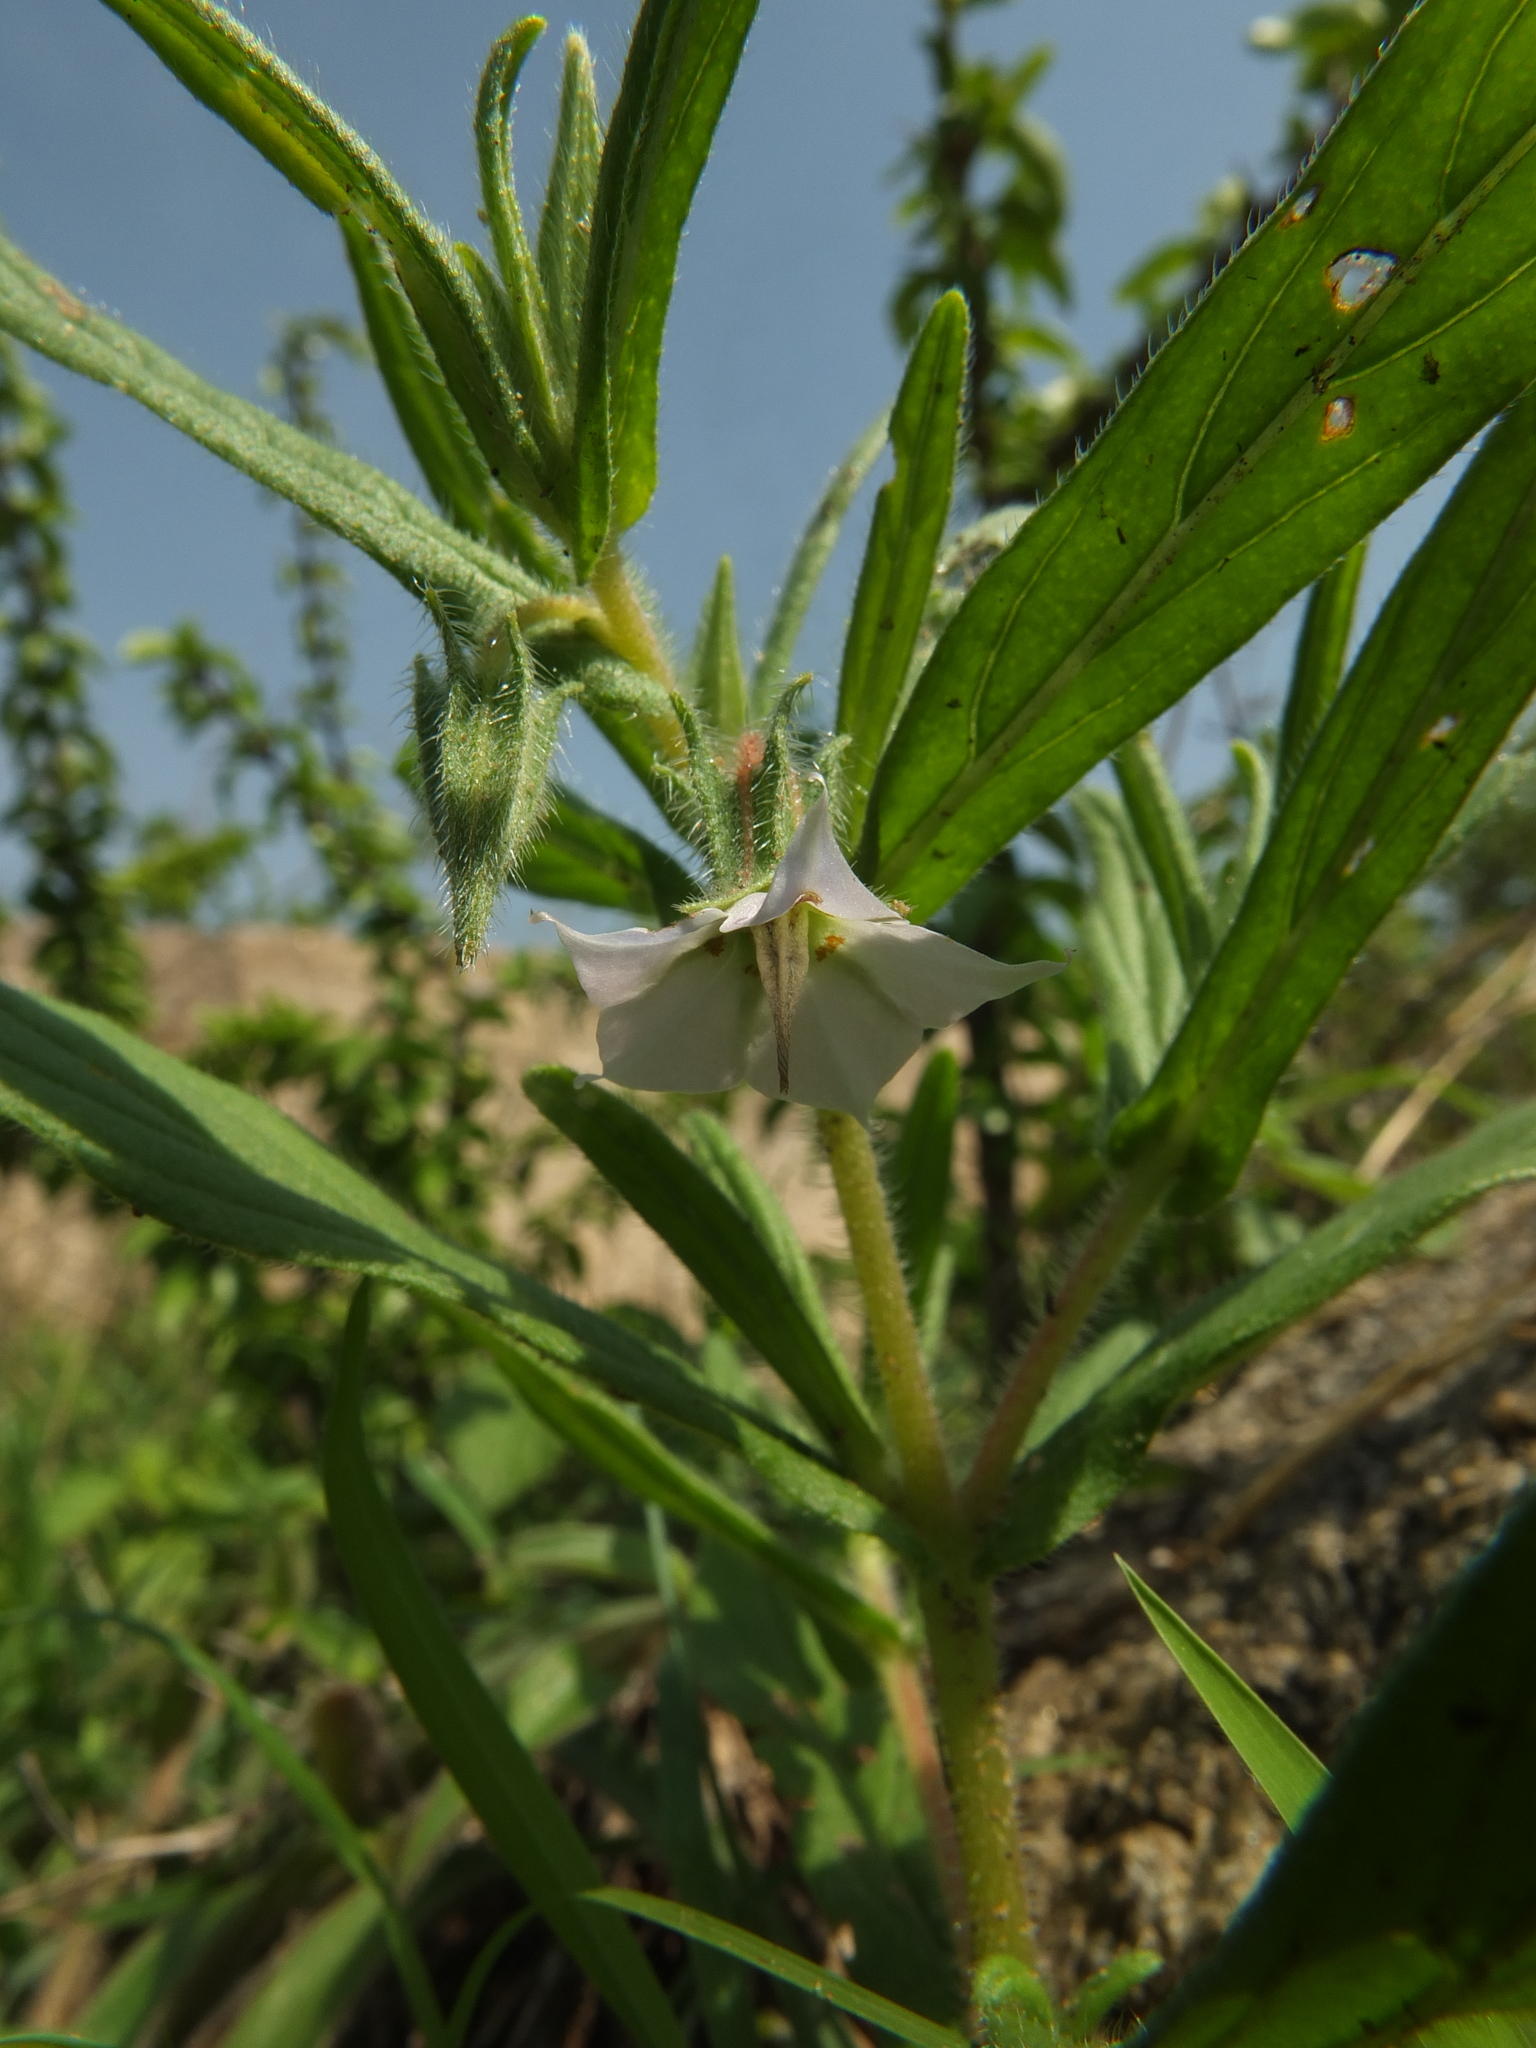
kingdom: Plantae
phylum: Tracheophyta
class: Magnoliopsida
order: Boraginales
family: Boraginaceae
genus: Trichodesma
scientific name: Trichodesma indicum
